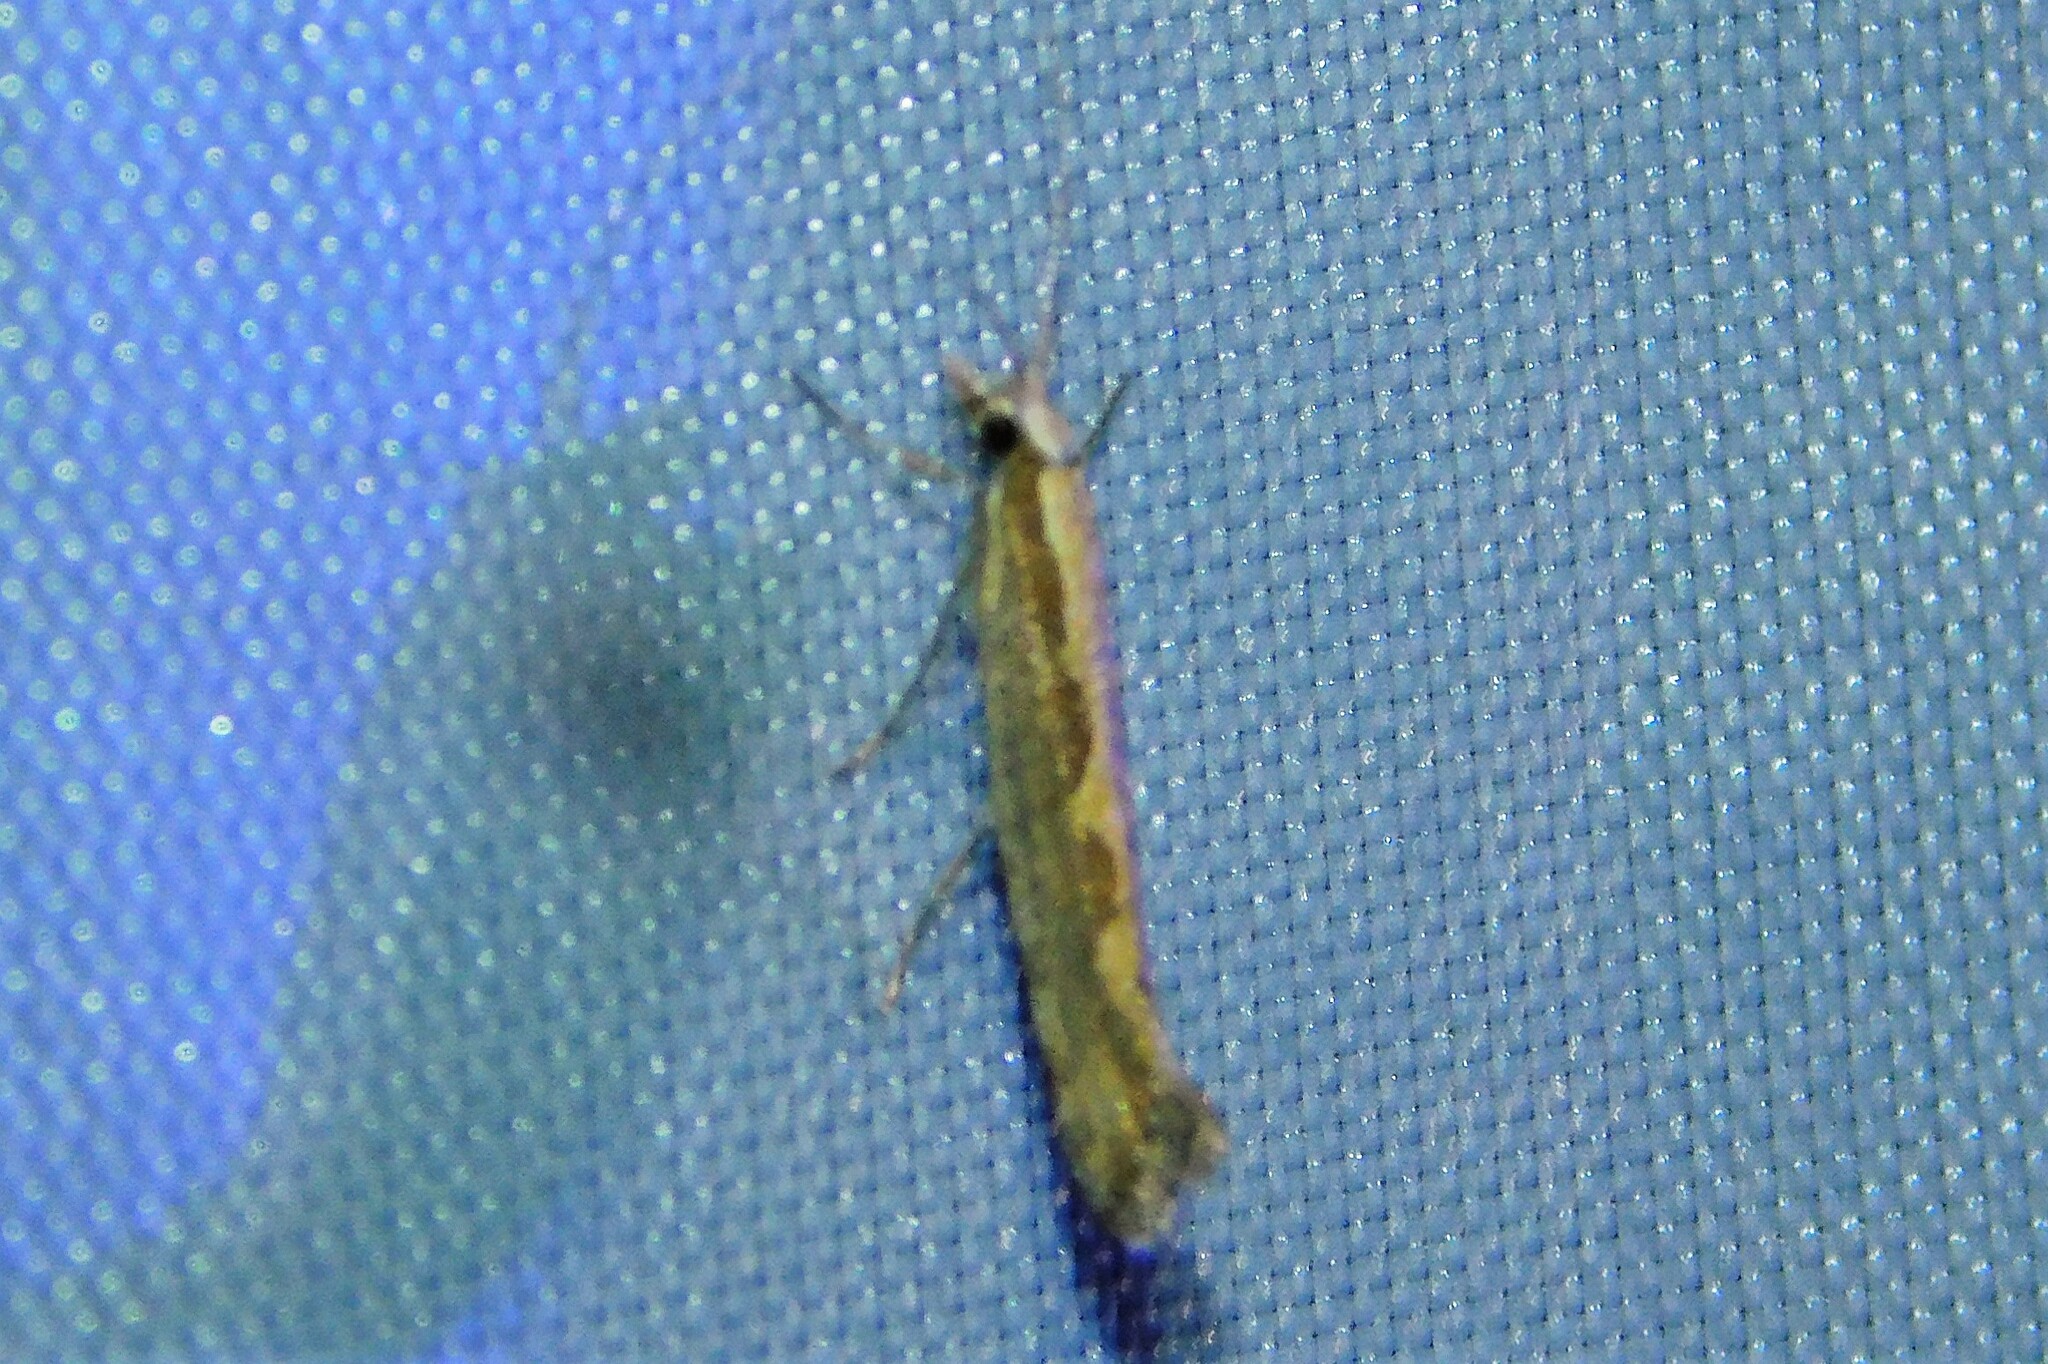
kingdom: Animalia
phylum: Arthropoda
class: Insecta
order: Lepidoptera
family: Plutellidae
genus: Plutella
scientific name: Plutella xylostella
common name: Diamond-back moth
